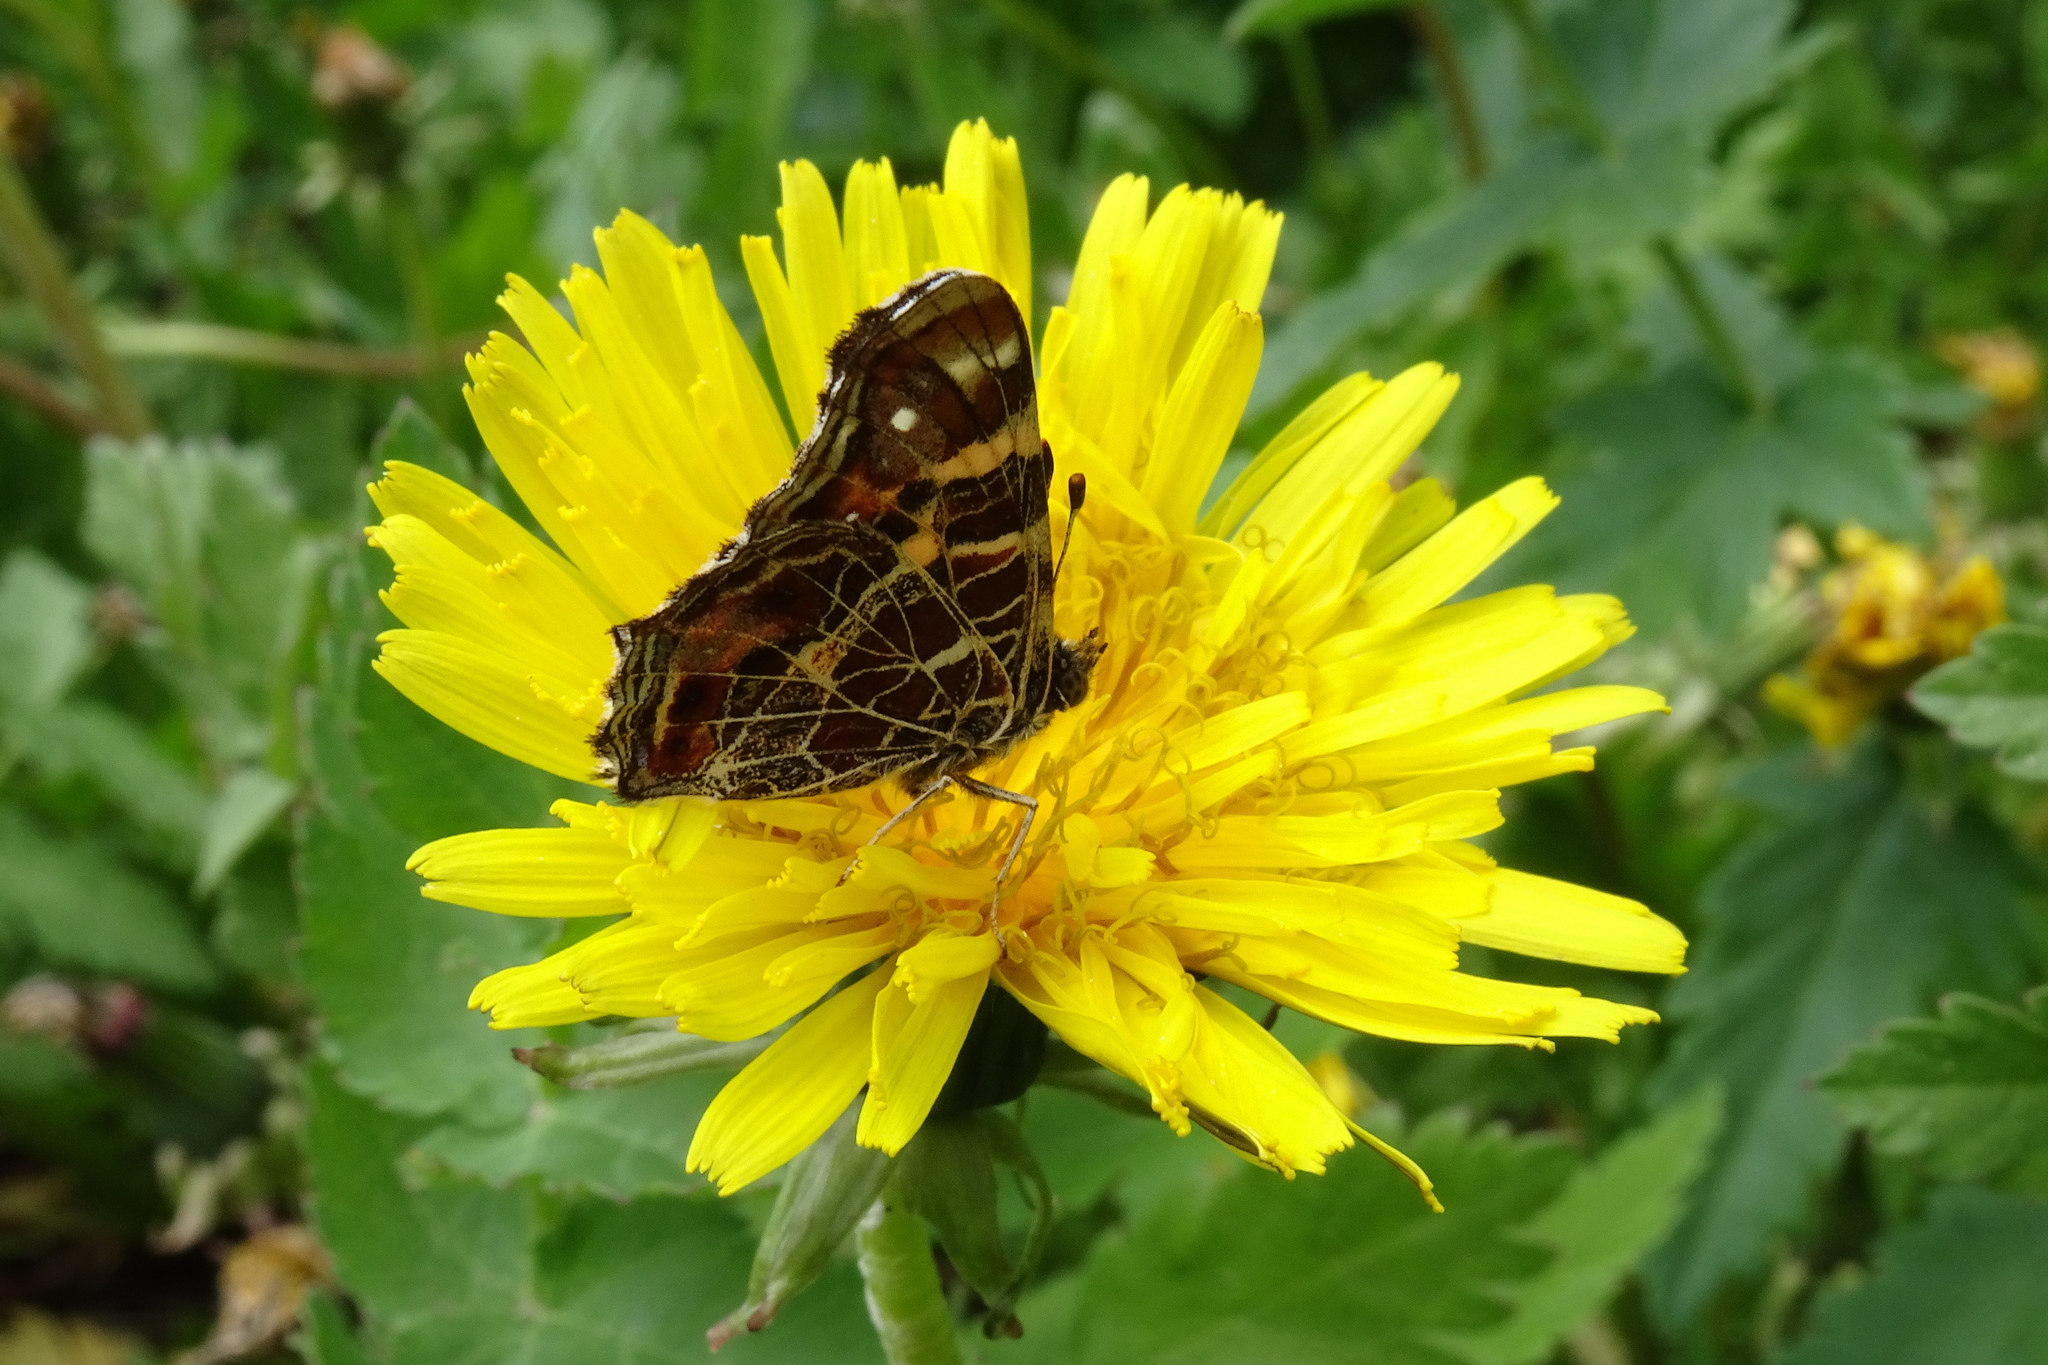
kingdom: Animalia
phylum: Arthropoda
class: Insecta
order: Lepidoptera
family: Nymphalidae
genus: Araschnia
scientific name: Araschnia levana
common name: Map butterfly
